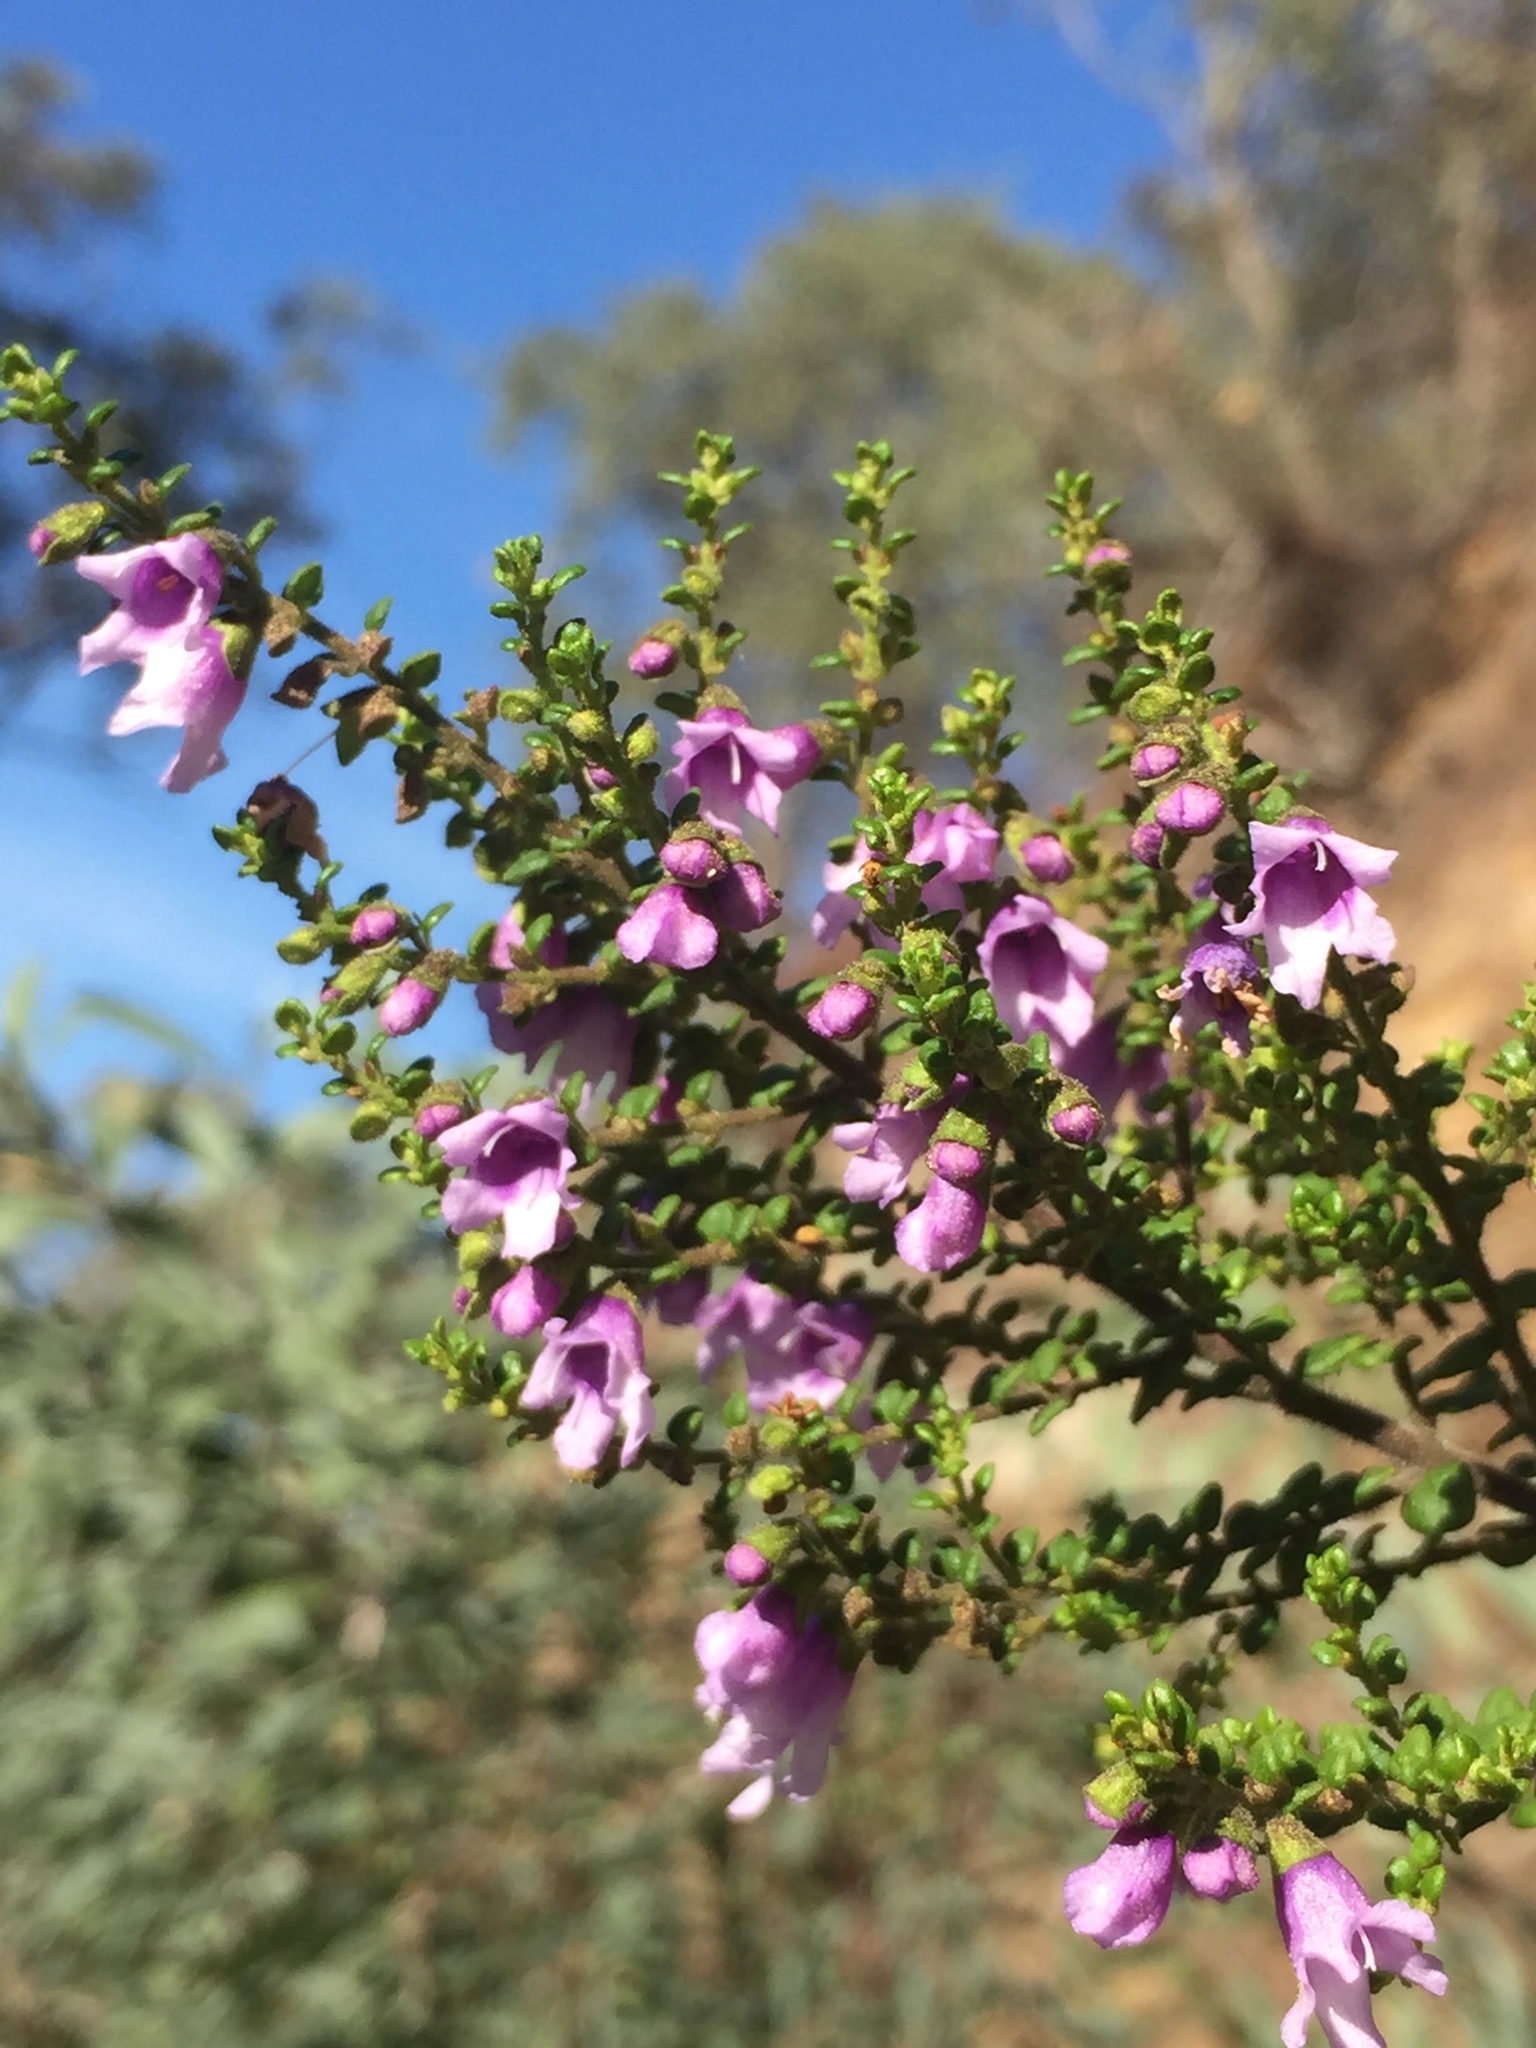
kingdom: Plantae
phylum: Tracheophyta
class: Magnoliopsida
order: Lamiales
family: Lamiaceae
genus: Prostanthera
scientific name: Prostanthera rhombea
